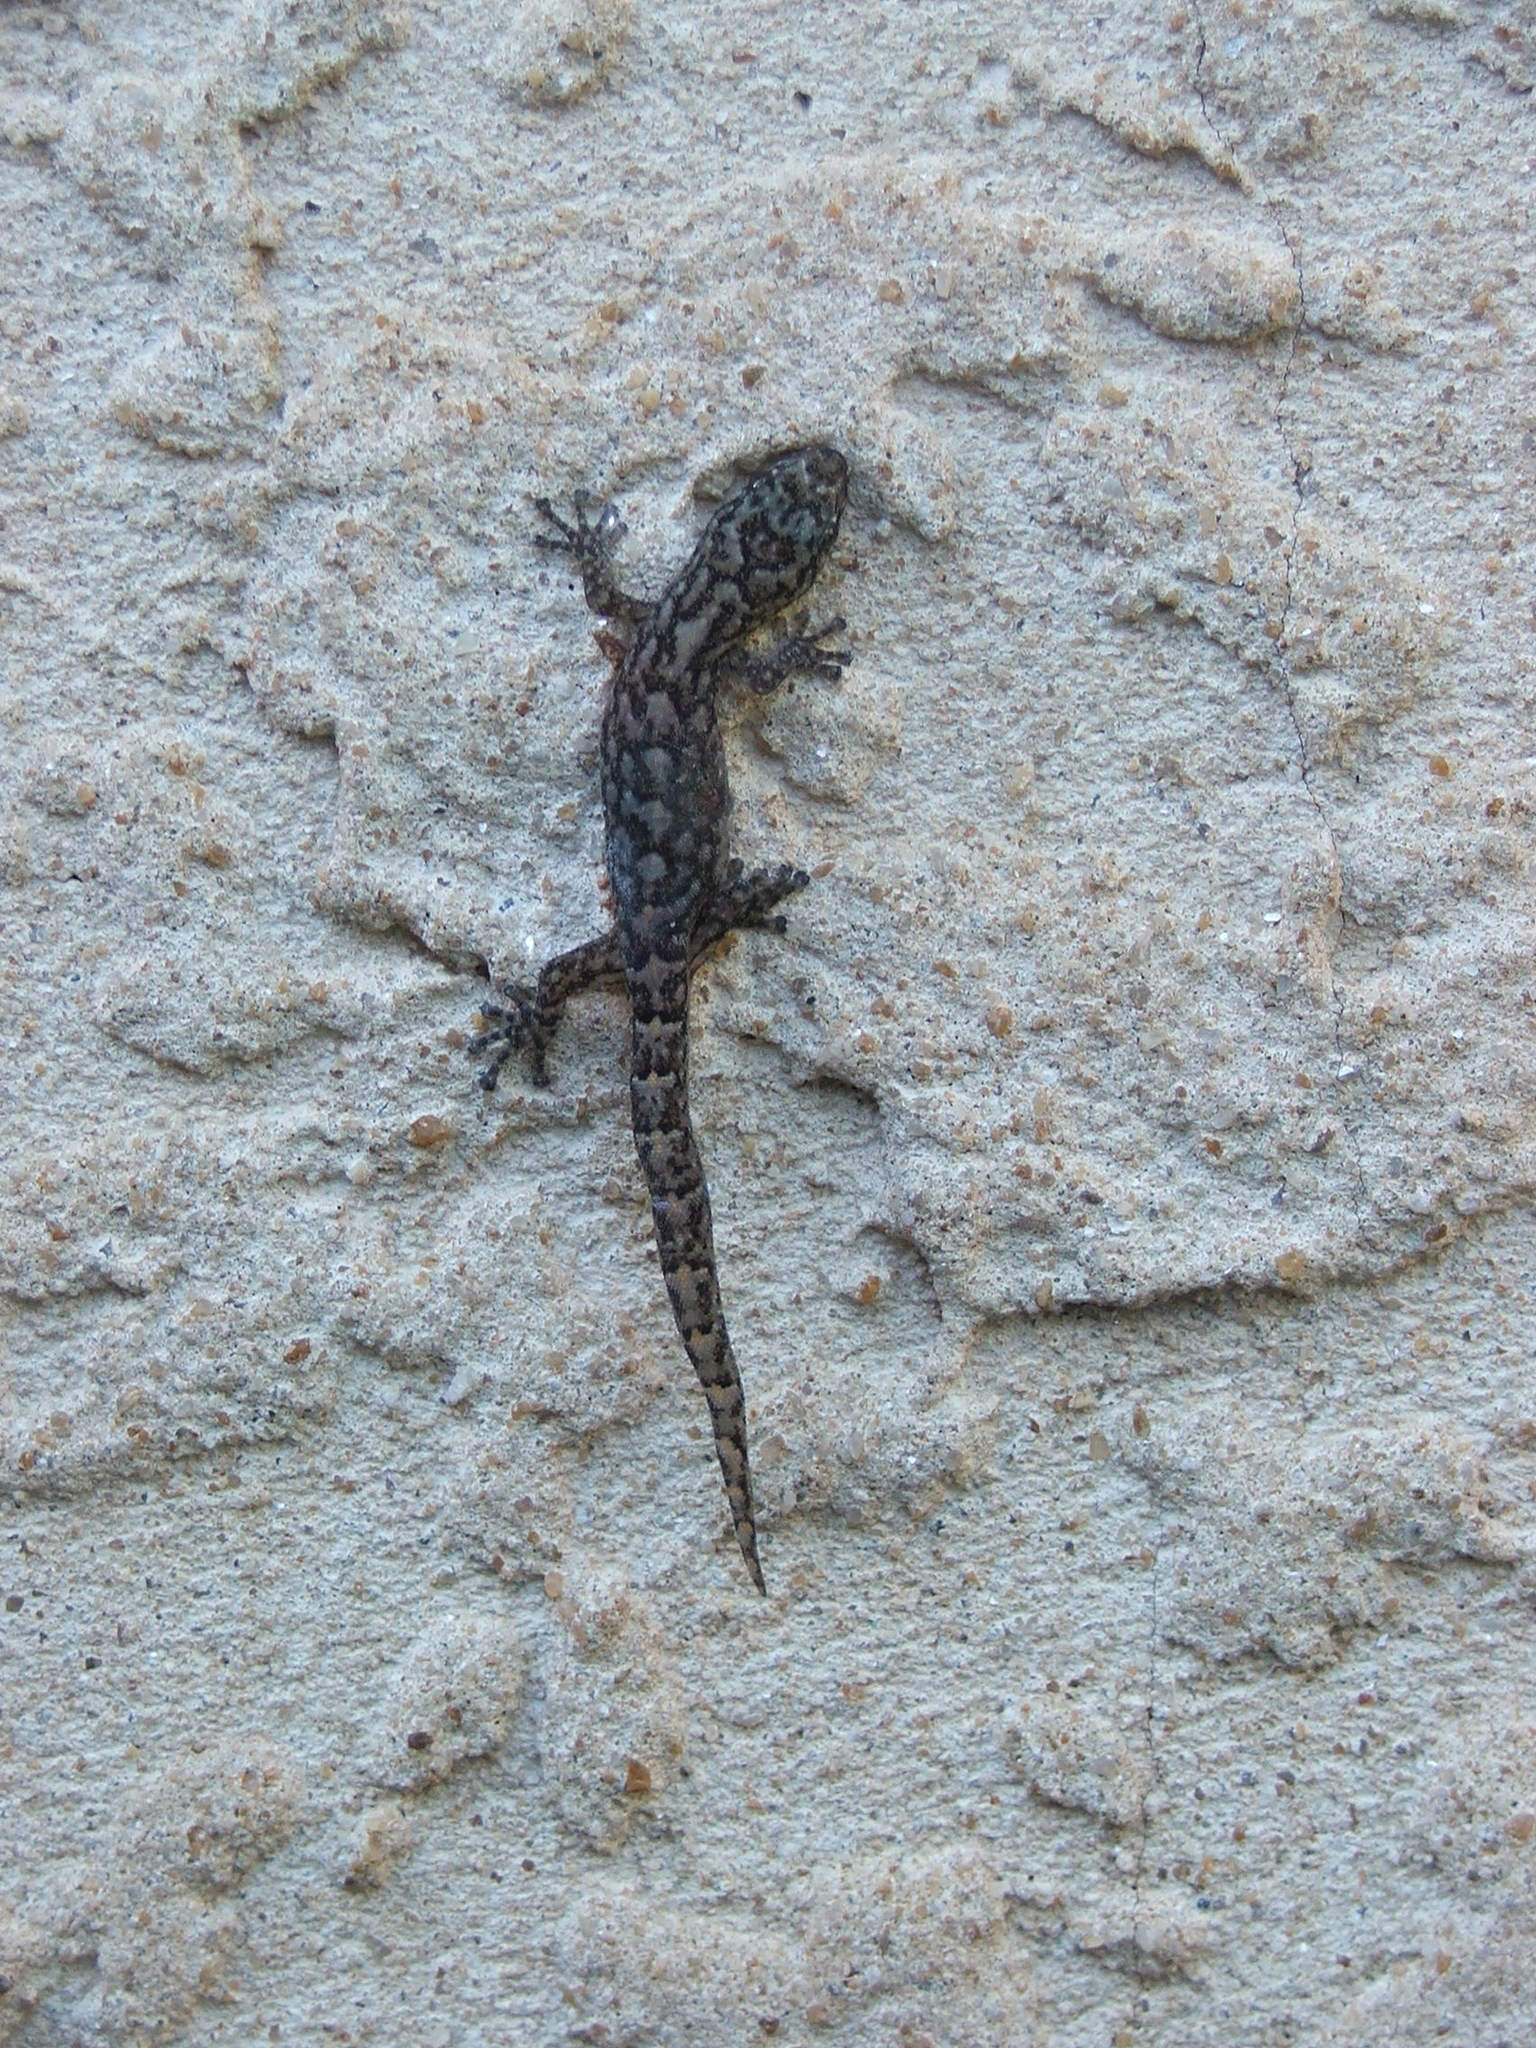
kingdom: Animalia
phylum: Chordata
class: Squamata
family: Gekkonidae
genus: Christinus
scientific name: Christinus marmoratus
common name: Marbled gecko
